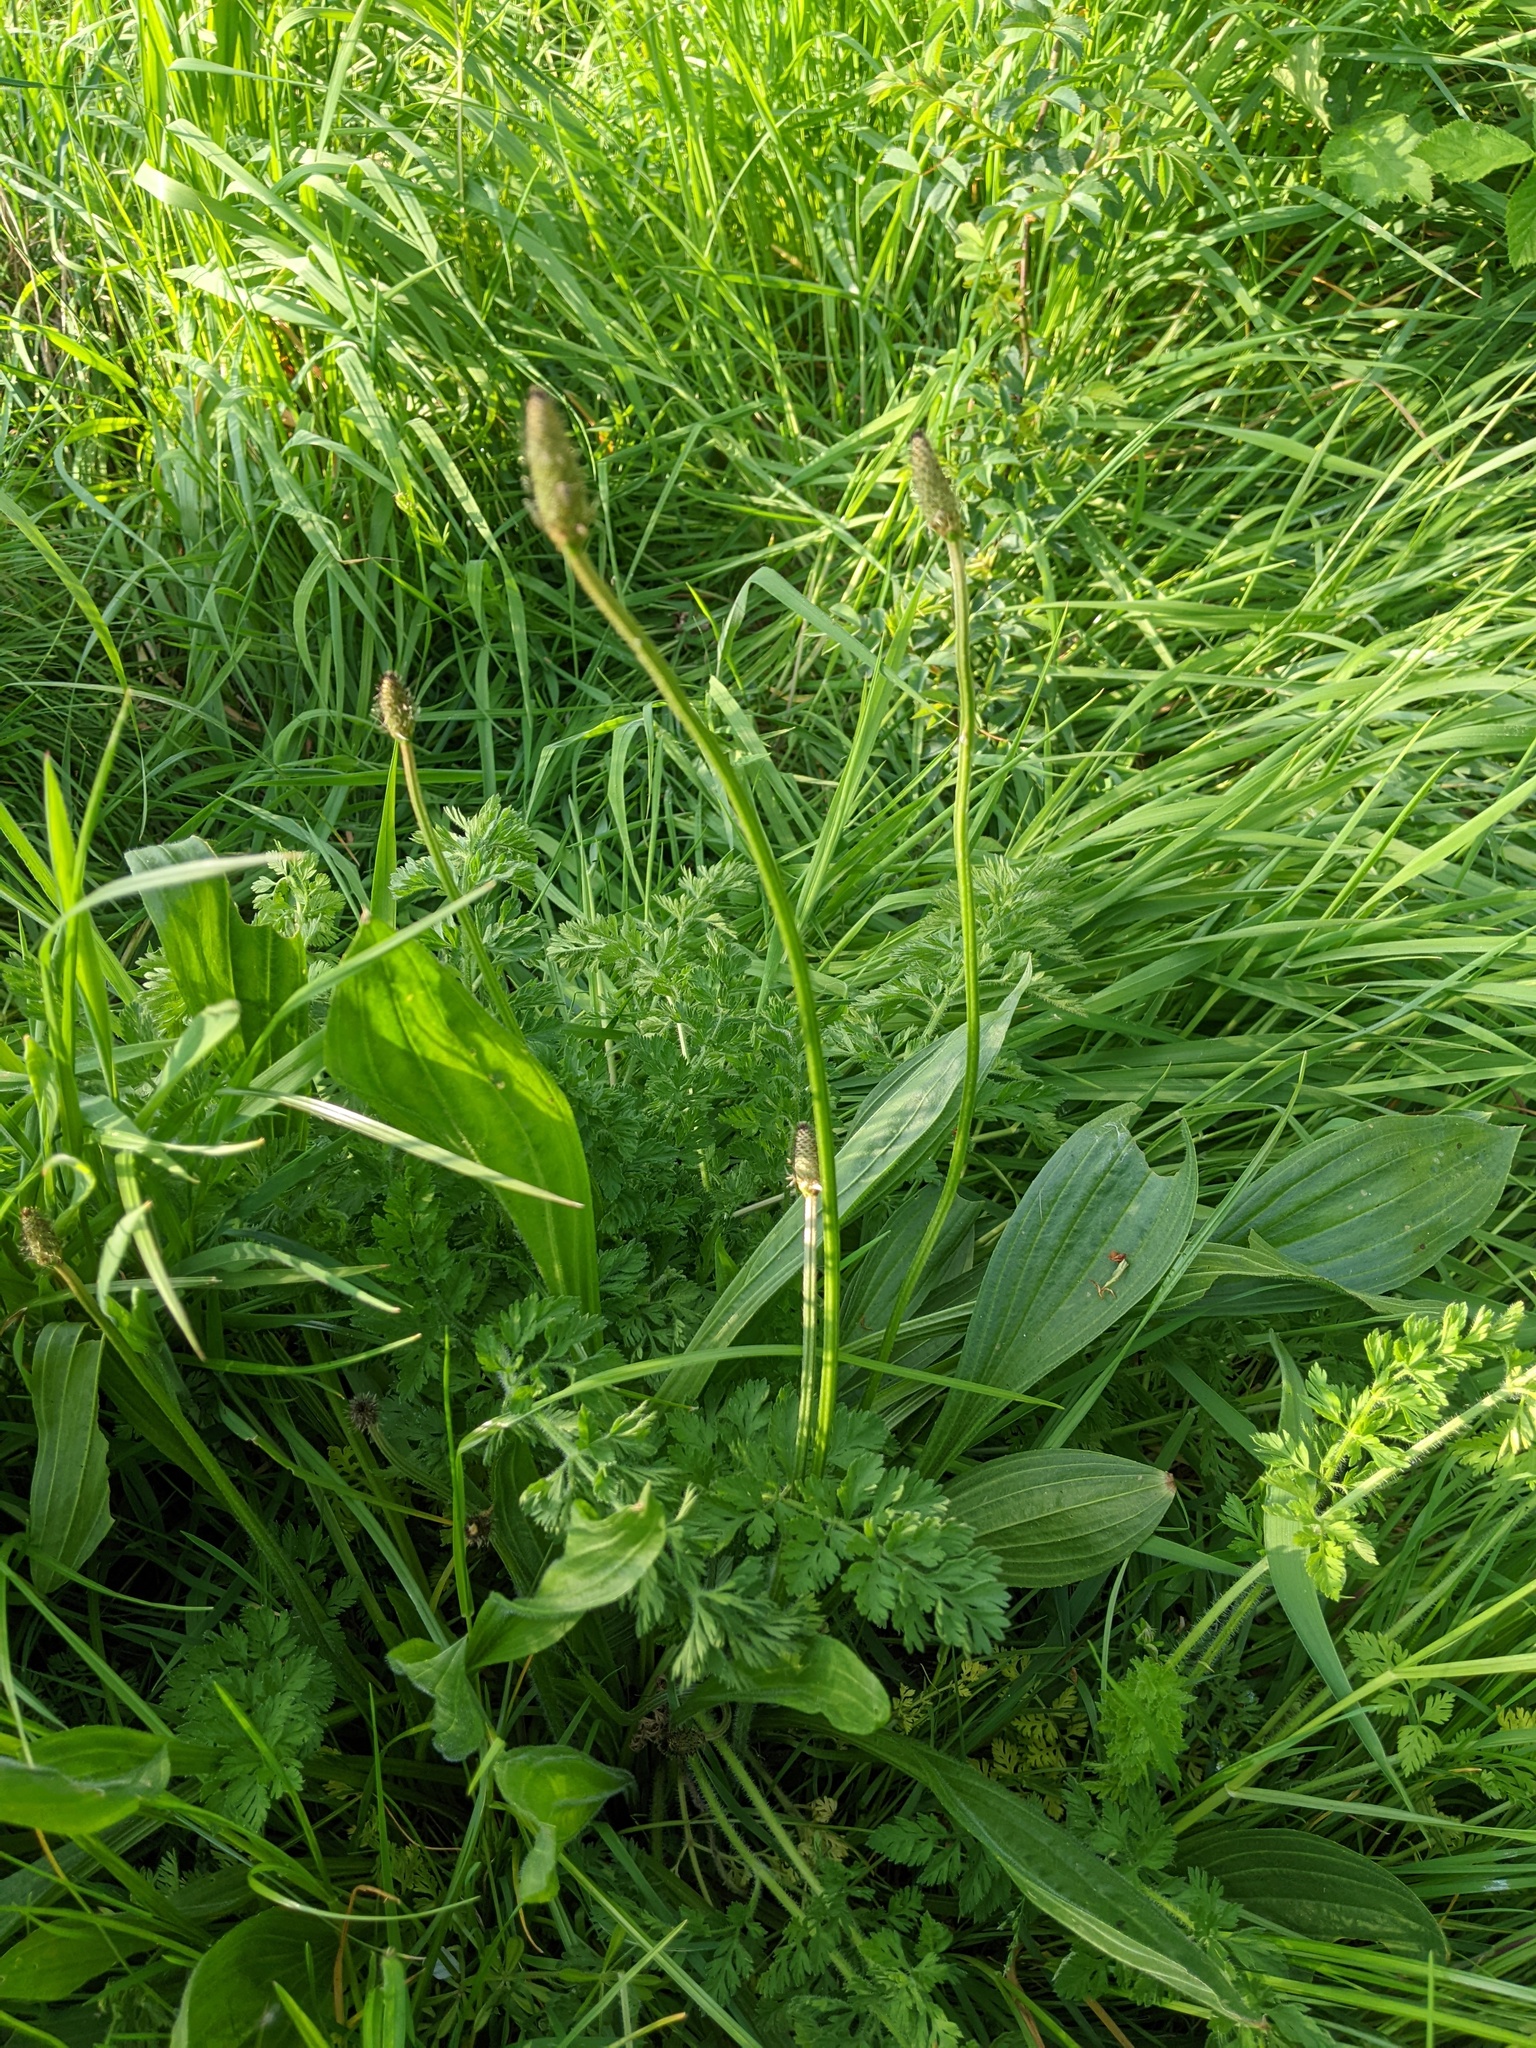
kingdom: Plantae
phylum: Tracheophyta
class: Magnoliopsida
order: Lamiales
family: Plantaginaceae
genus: Plantago
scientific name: Plantago lanceolata
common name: Ribwort plantain
